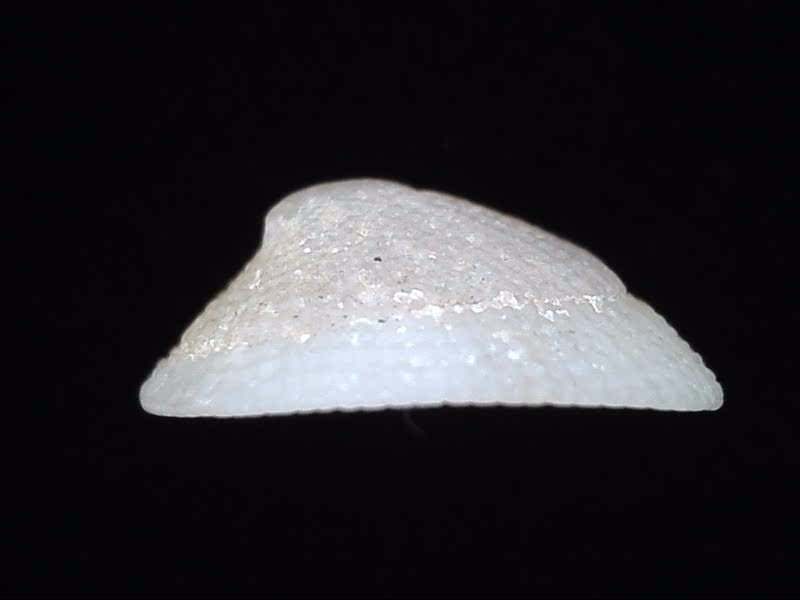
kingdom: Animalia
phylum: Mollusca
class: Gastropoda
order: Lepetellida
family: Fissurellidae
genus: Tugali
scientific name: Tugali suteri
